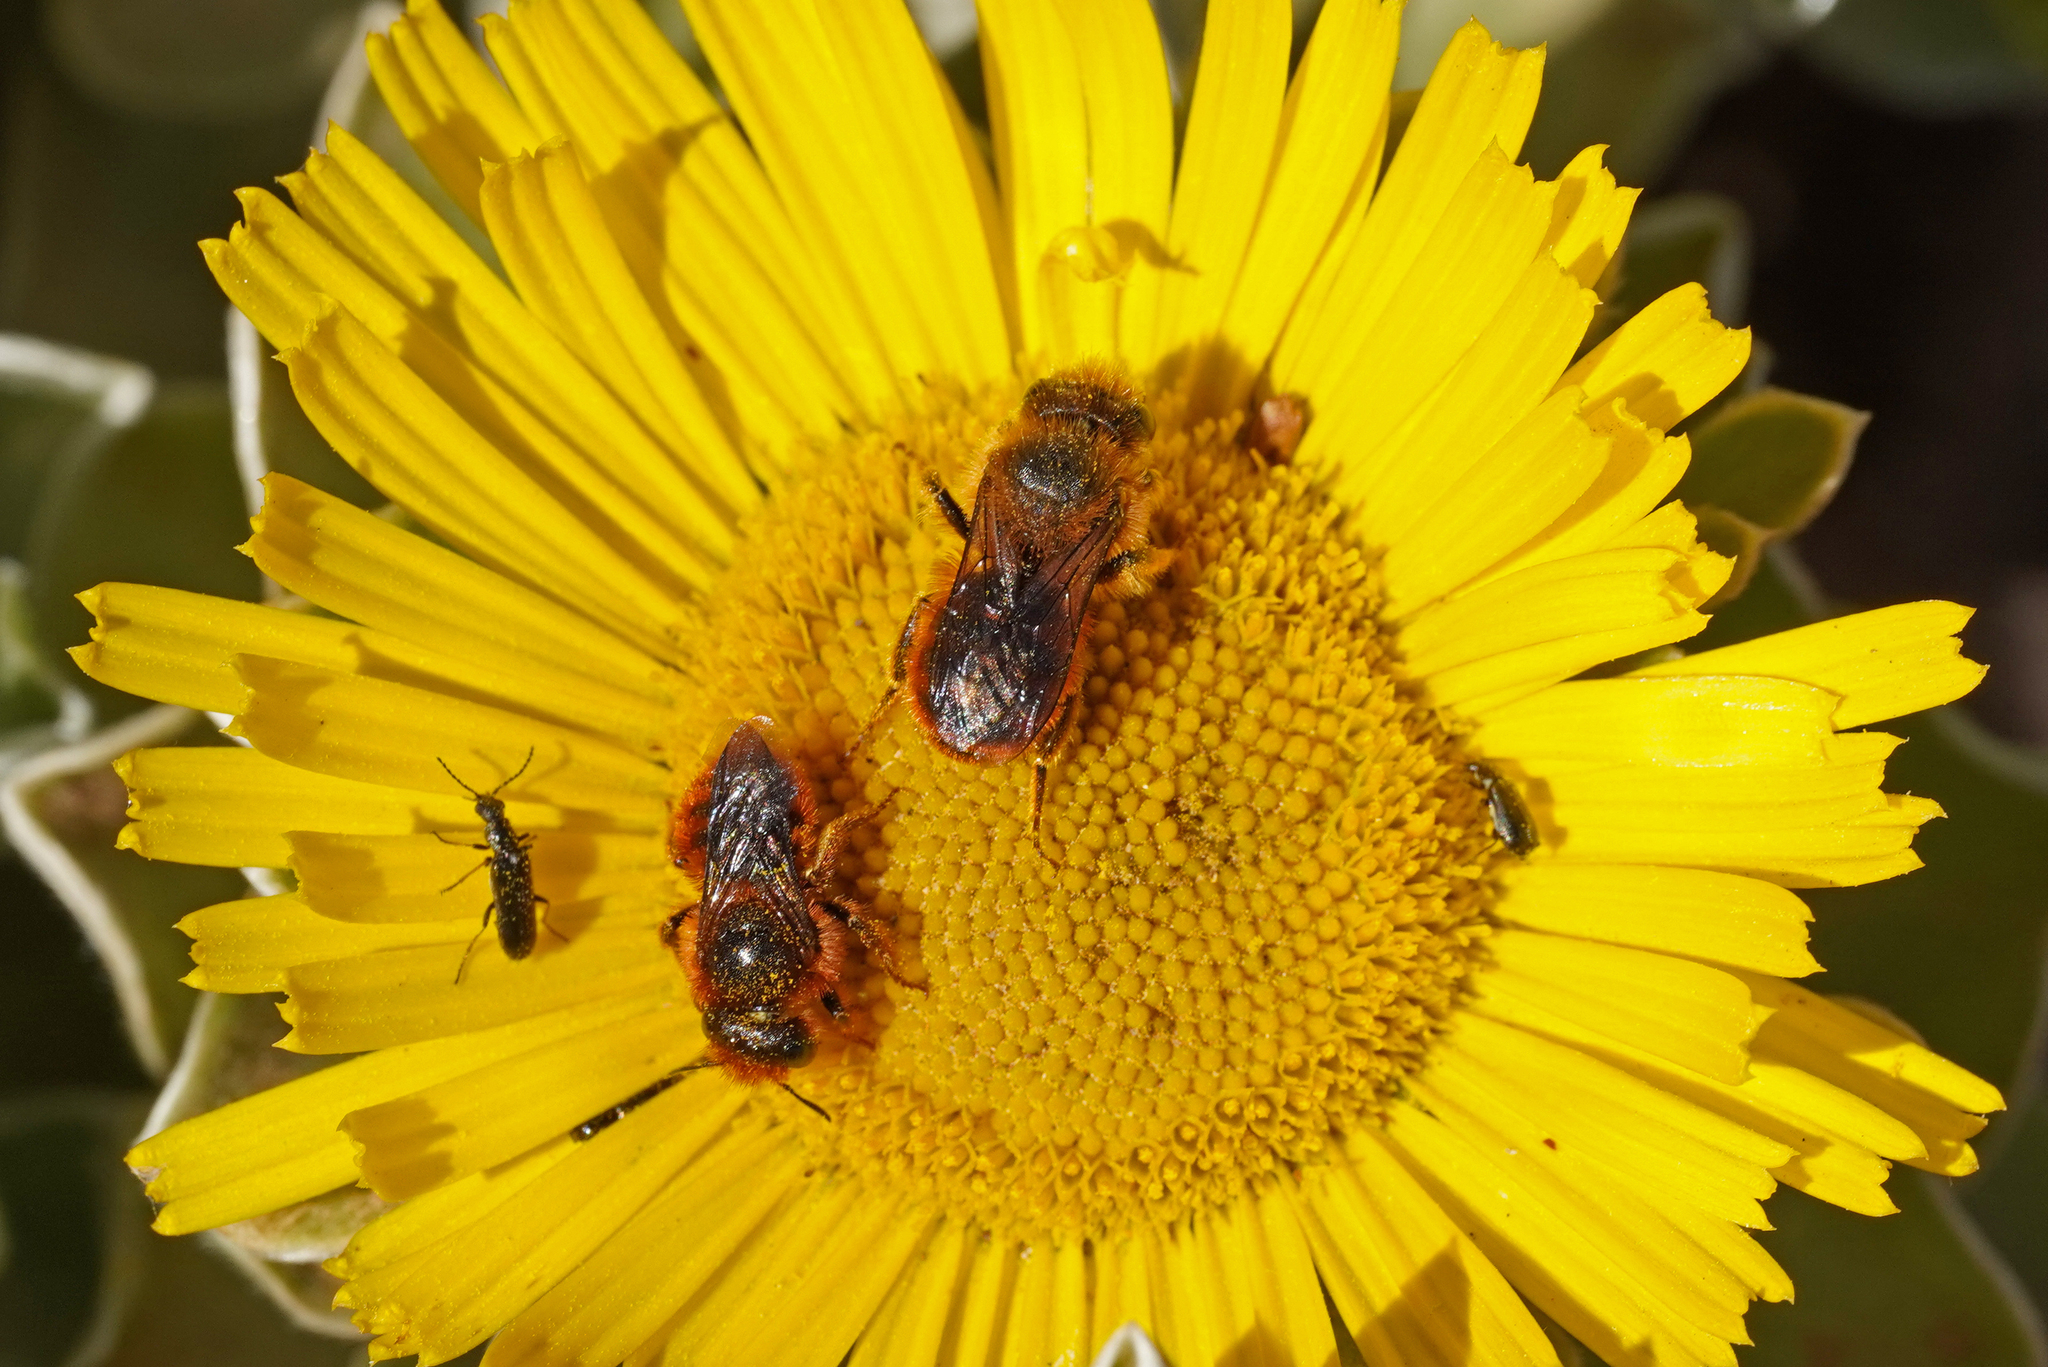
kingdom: Animalia
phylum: Arthropoda
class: Insecta
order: Hymenoptera
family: Megachilidae
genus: Osmia
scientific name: Osmia cinnabarina
